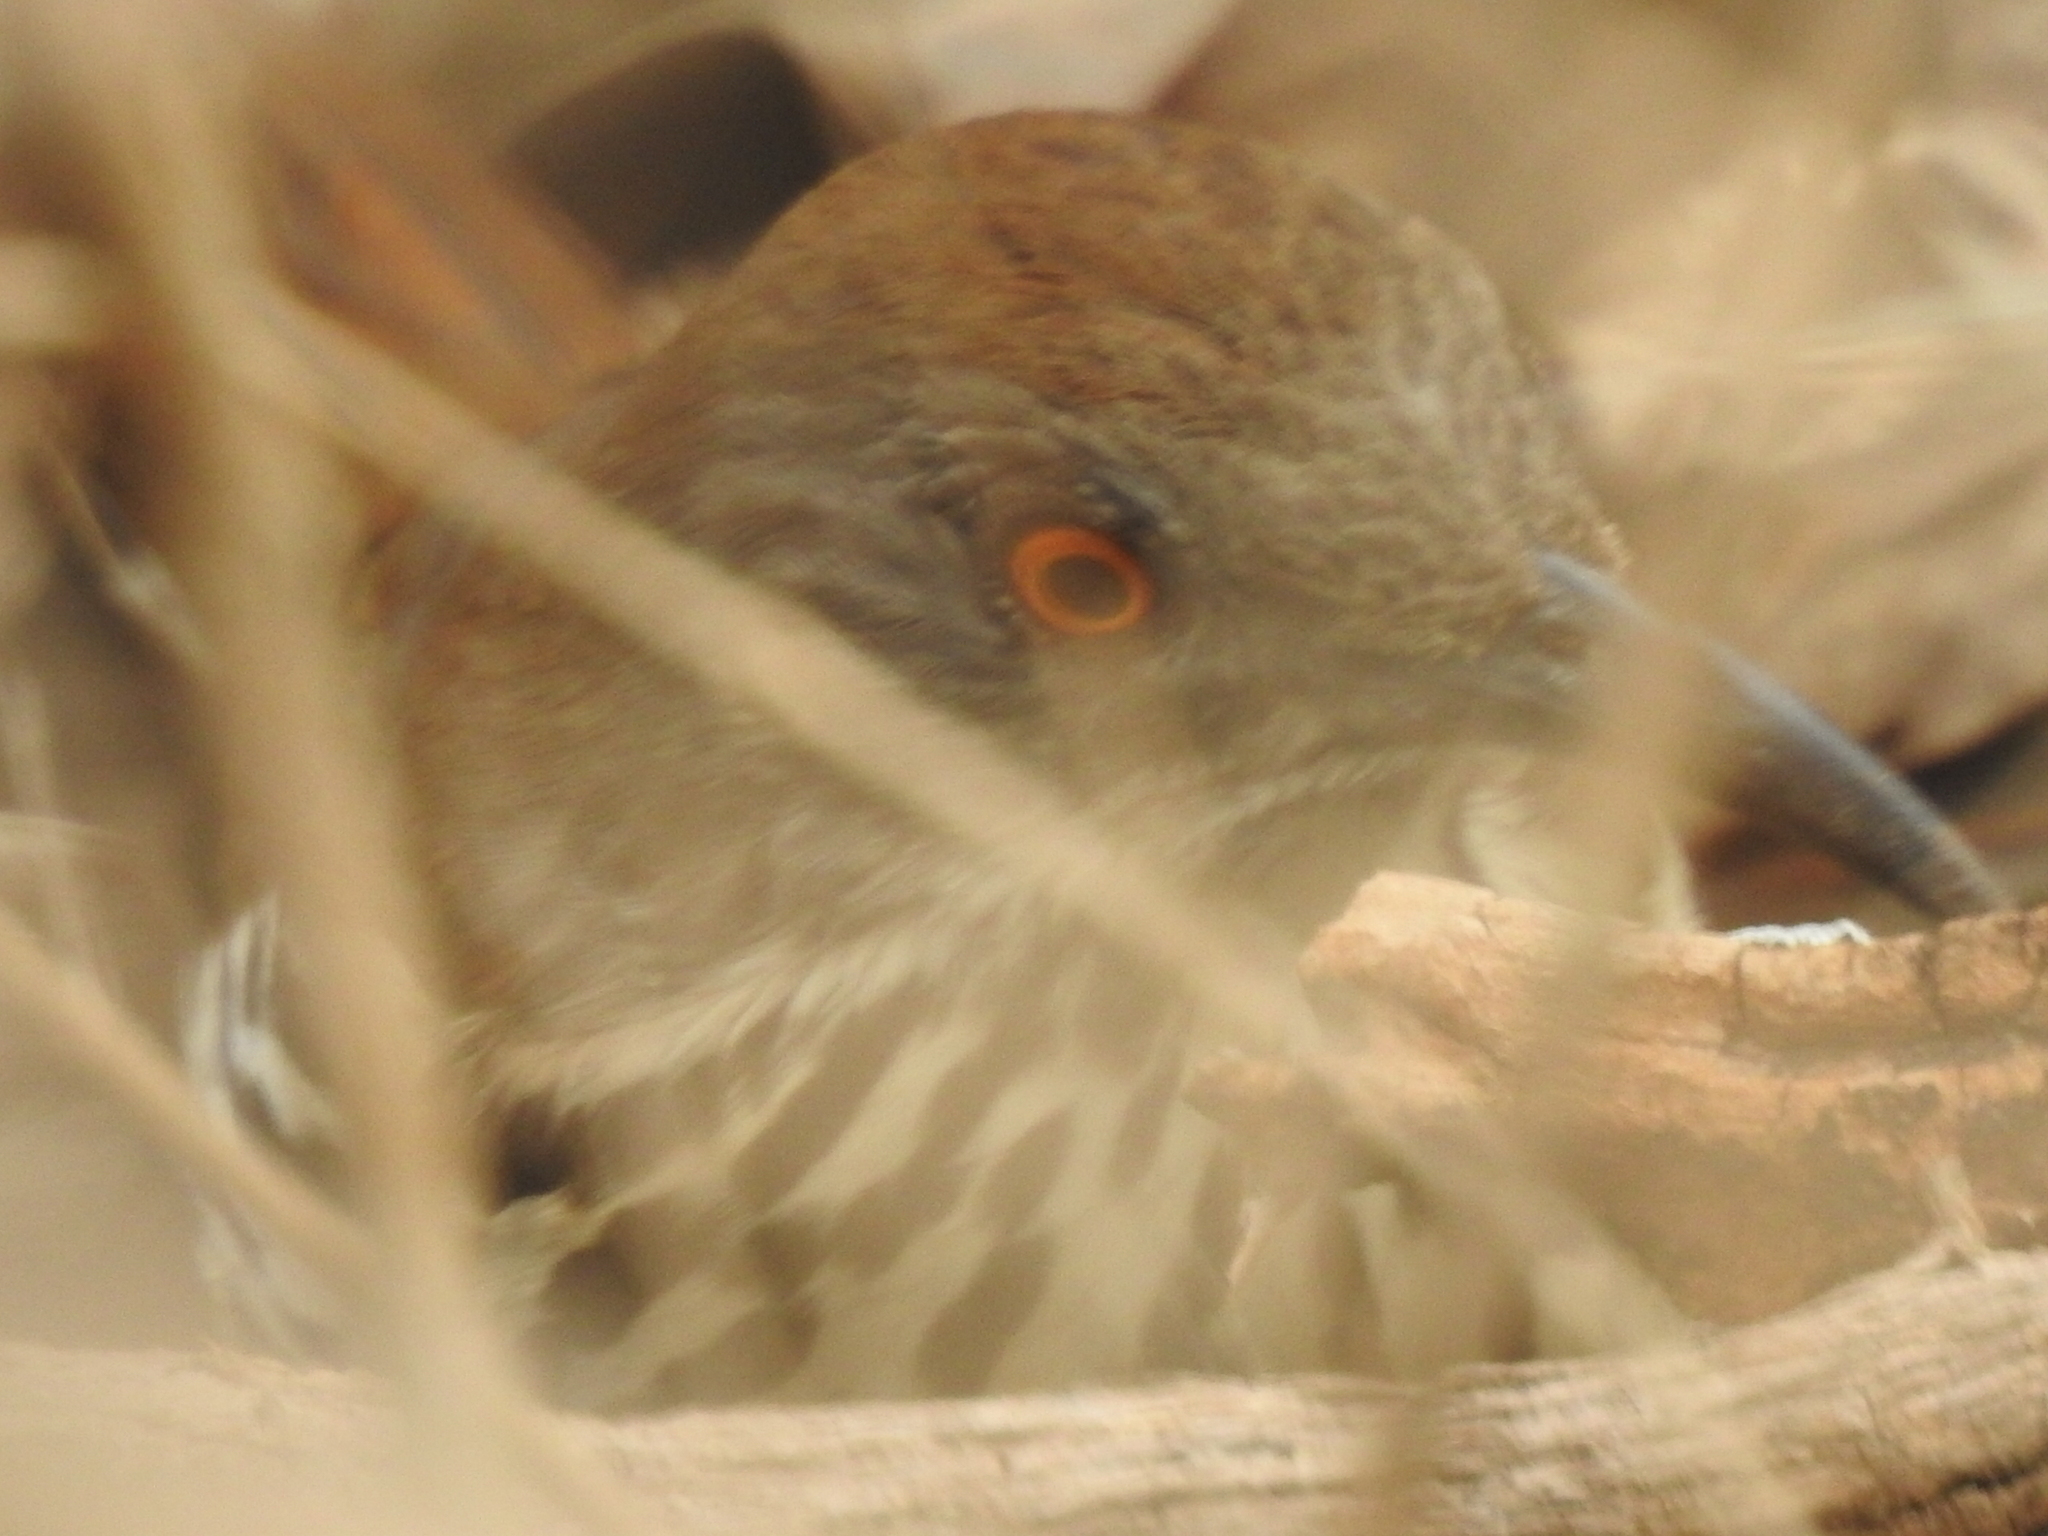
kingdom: Animalia
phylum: Chordata
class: Aves
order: Passeriformes
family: Mimidae
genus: Toxostoma
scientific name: Toxostoma longirostre
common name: Long-billed thrasher
